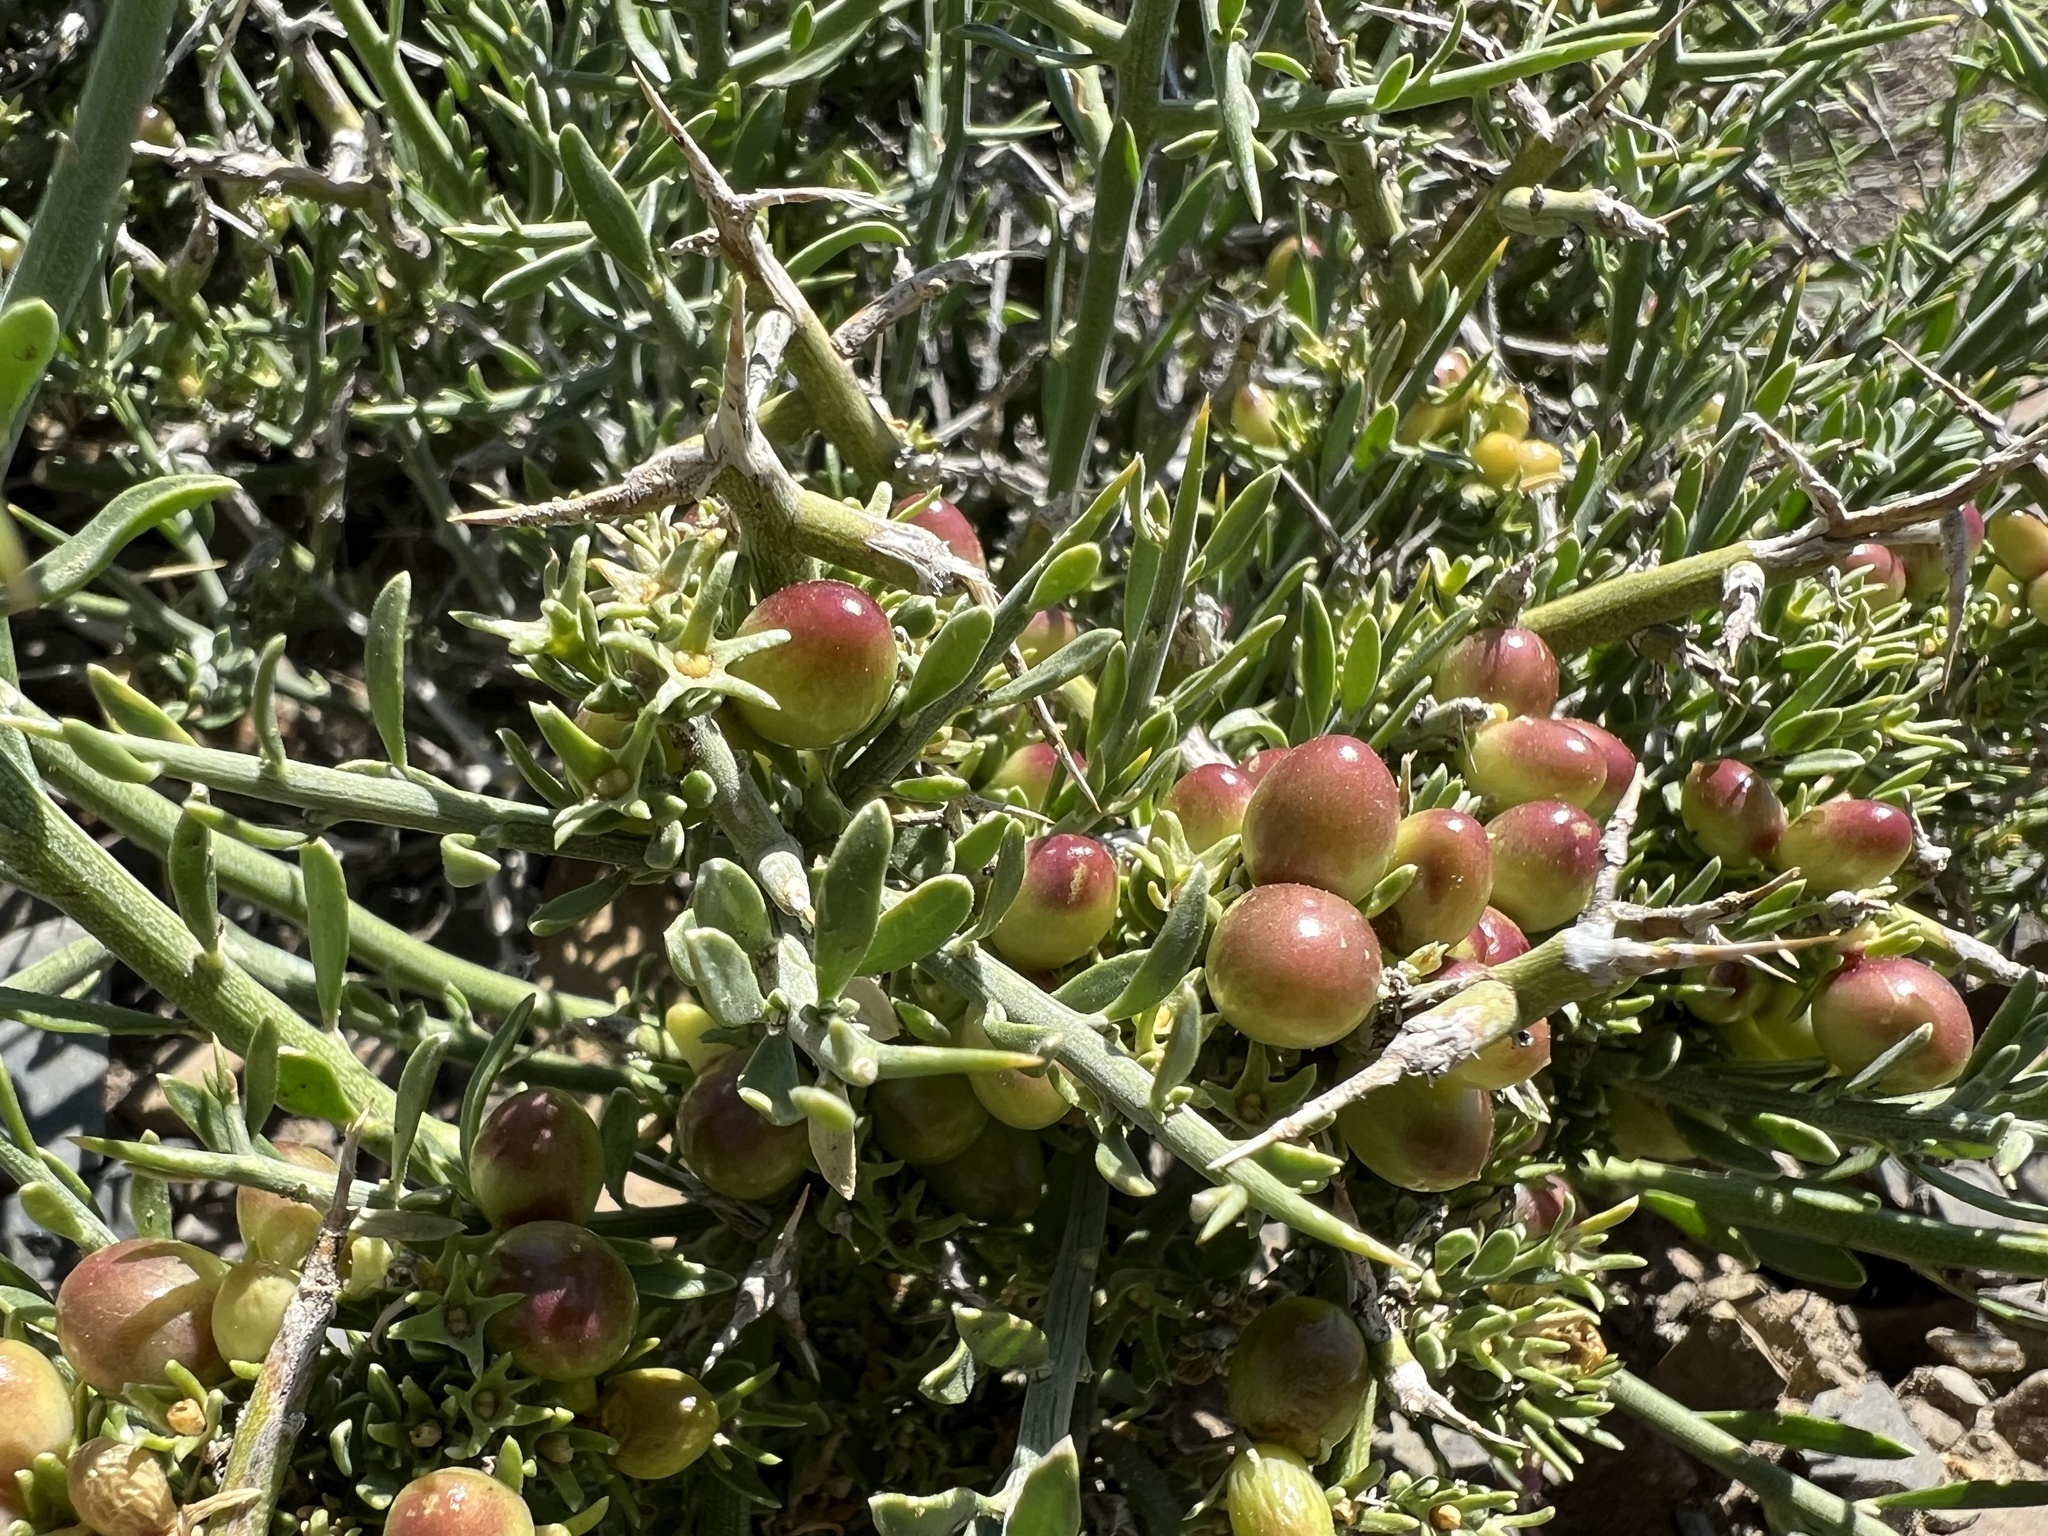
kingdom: Plantae
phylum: Tracheophyta
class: Magnoliopsida
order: Lamiales
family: Oleaceae
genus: Menodora
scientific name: Menodora spinescens
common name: Spiny menodora
